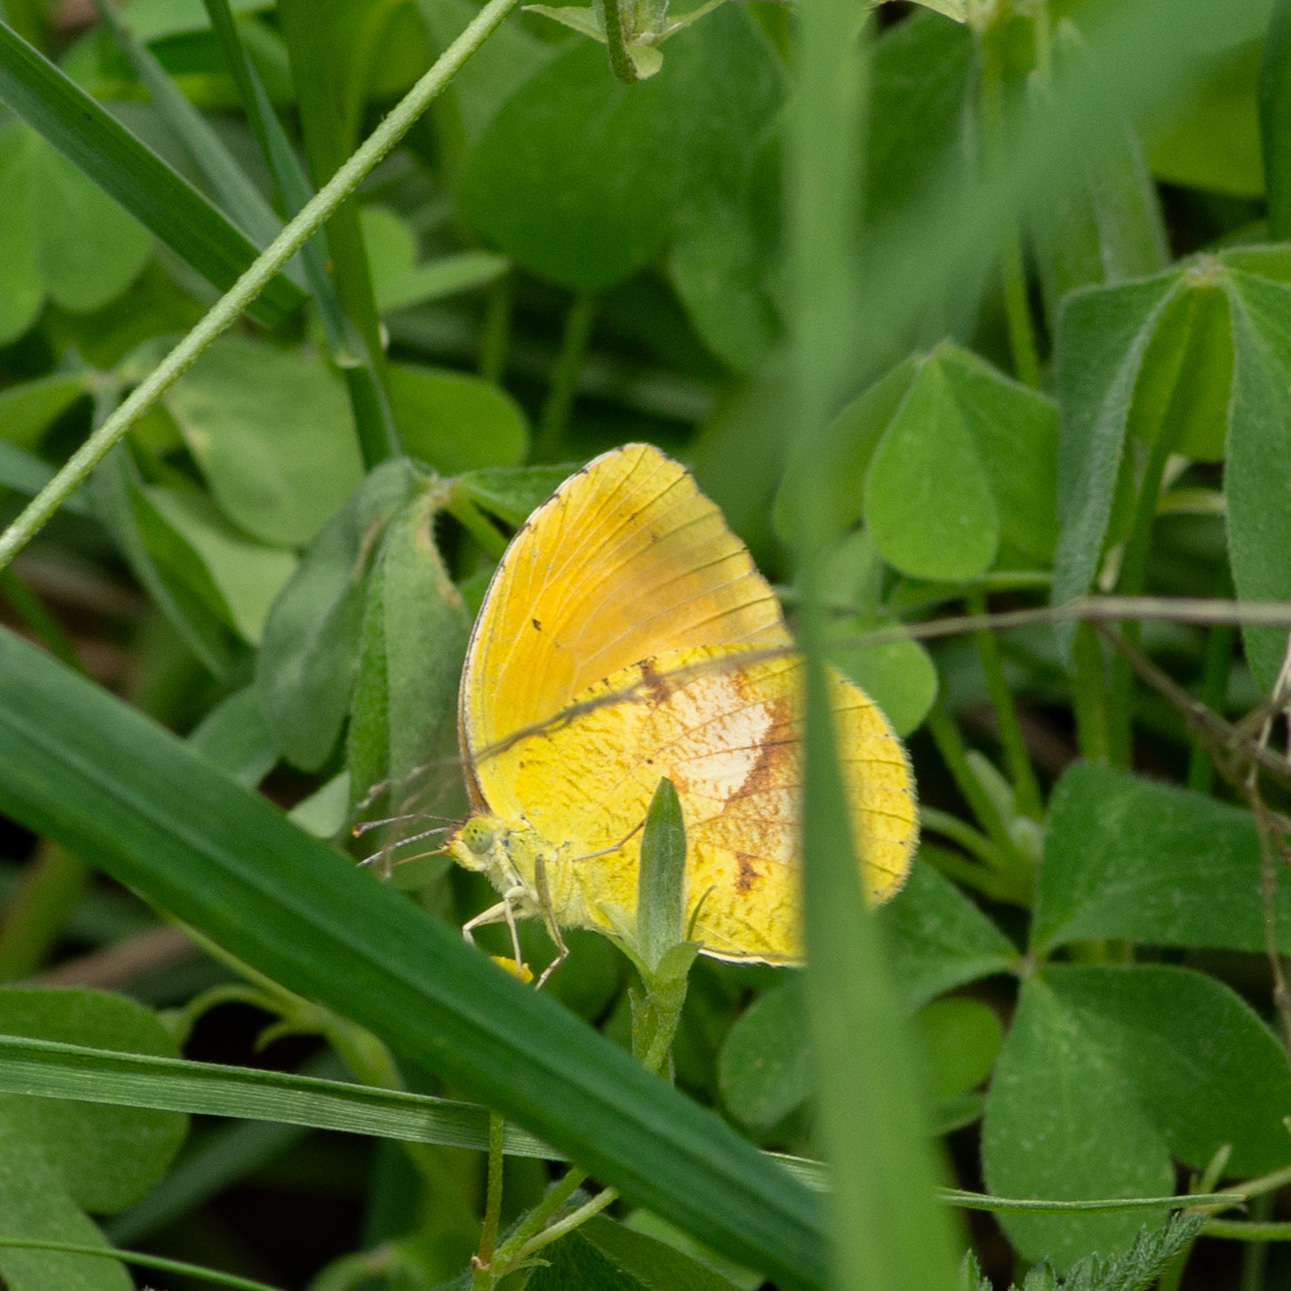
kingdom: Animalia
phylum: Arthropoda
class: Insecta
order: Lepidoptera
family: Pieridae
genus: Abaeis
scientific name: Abaeis nicippe
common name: Sleepy orange
